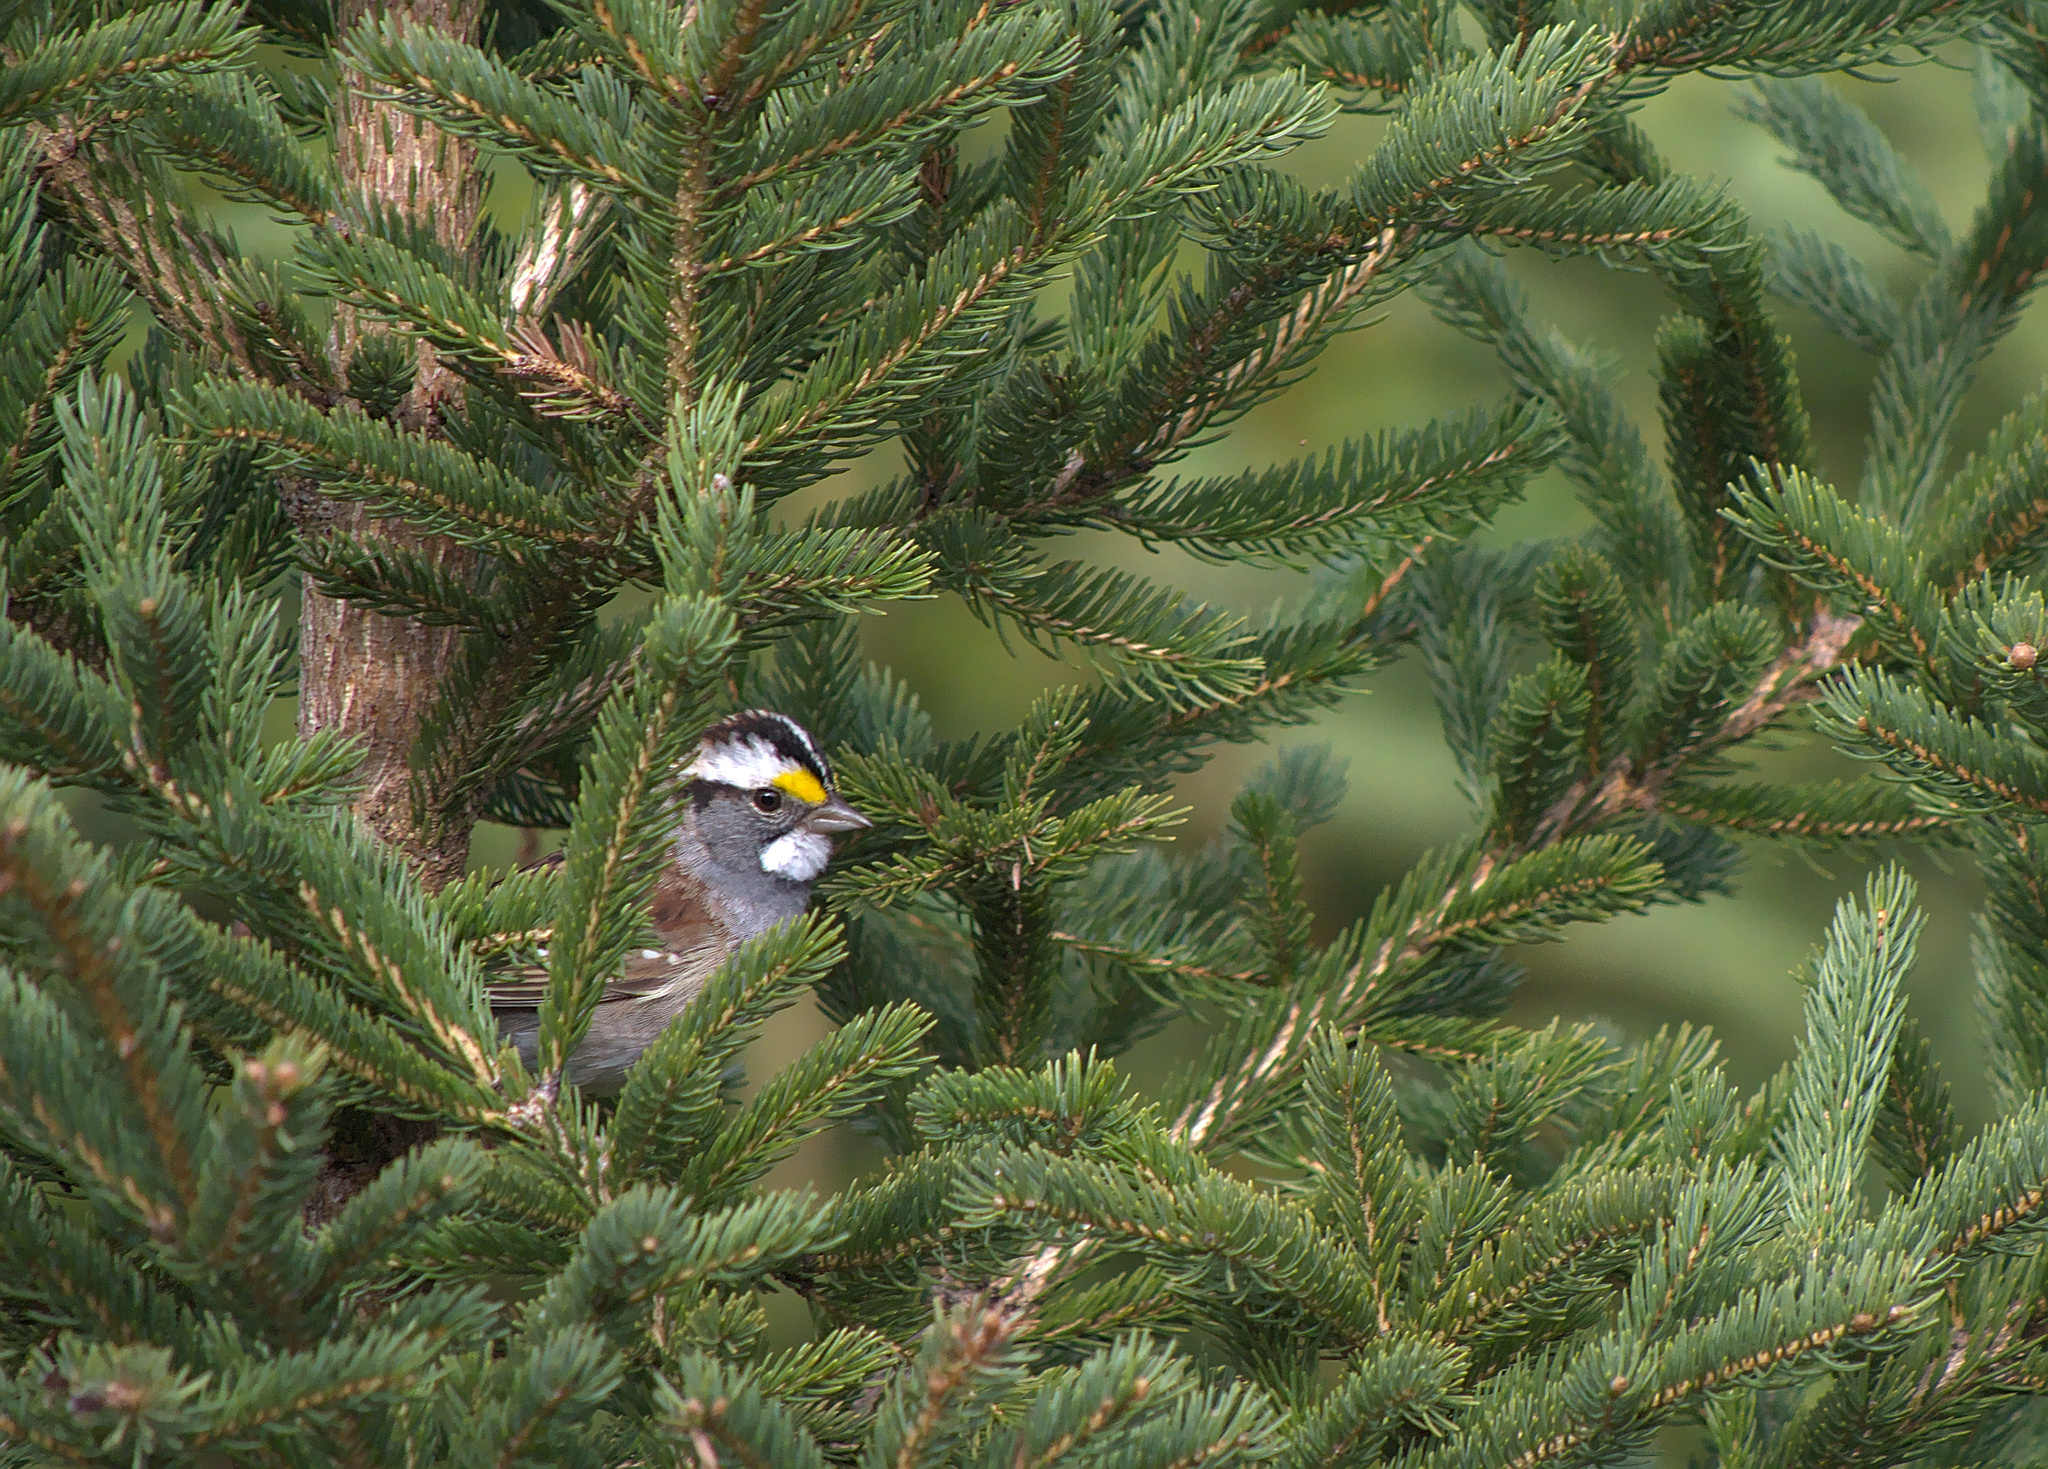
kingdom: Animalia
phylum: Chordata
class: Aves
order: Passeriformes
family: Passerellidae
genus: Zonotrichia
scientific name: Zonotrichia albicollis
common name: White-throated sparrow
